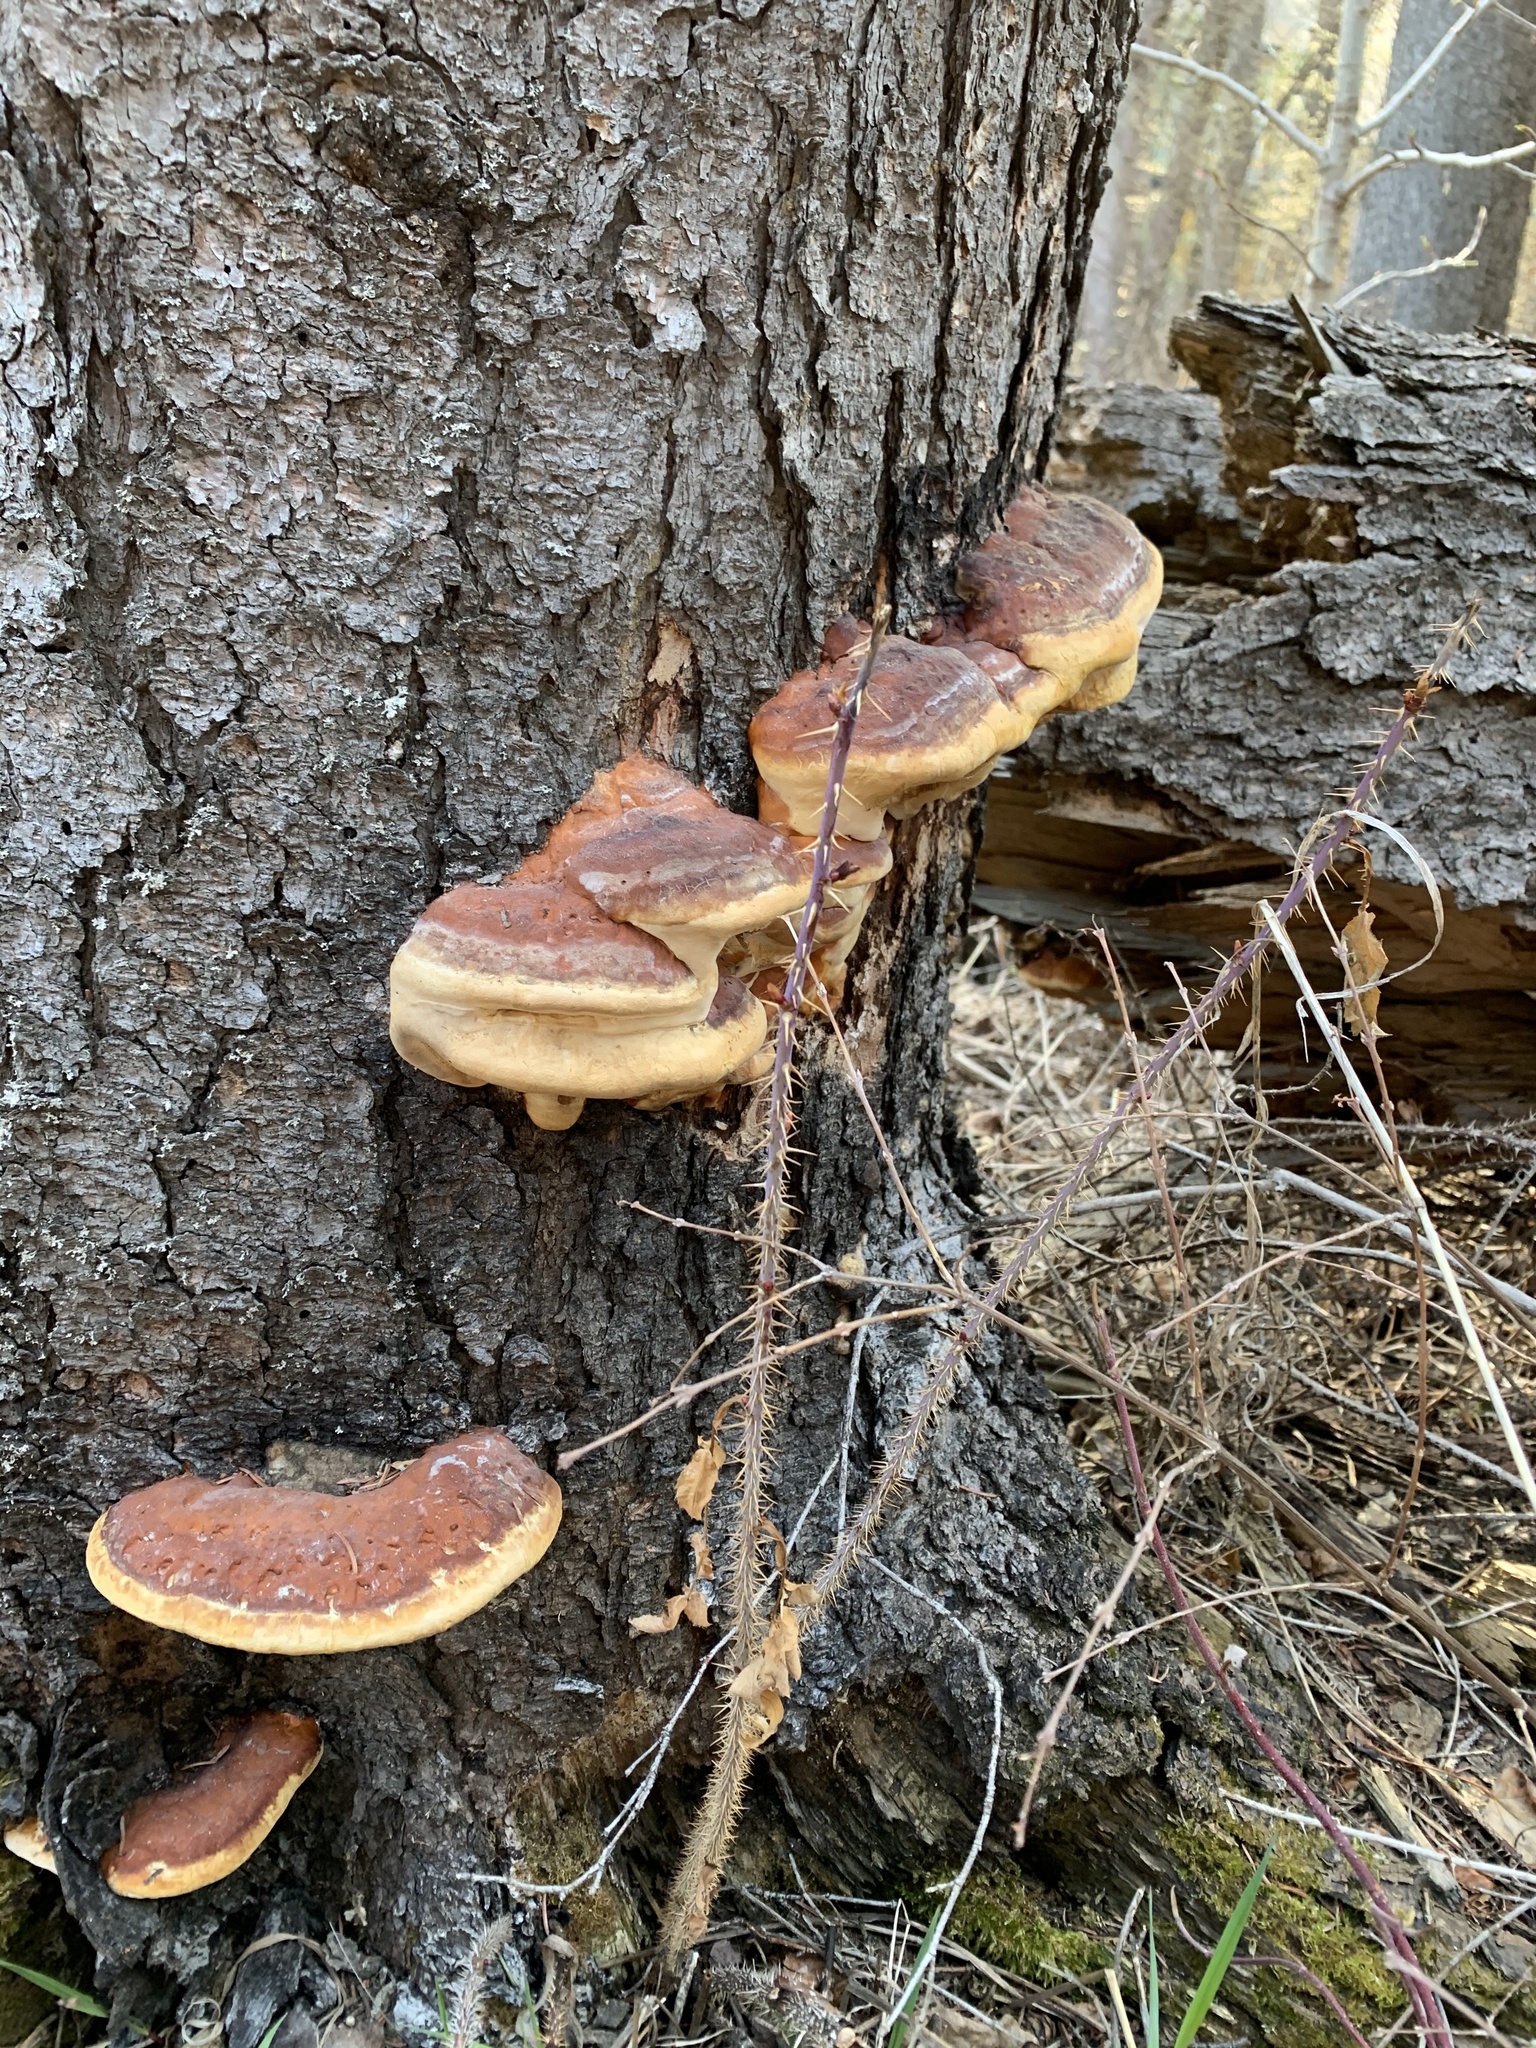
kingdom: Fungi
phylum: Basidiomycota
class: Agaricomycetes
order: Polyporales
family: Fomitopsidaceae
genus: Fomitopsis
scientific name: Fomitopsis mounceae
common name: Northern red belt
